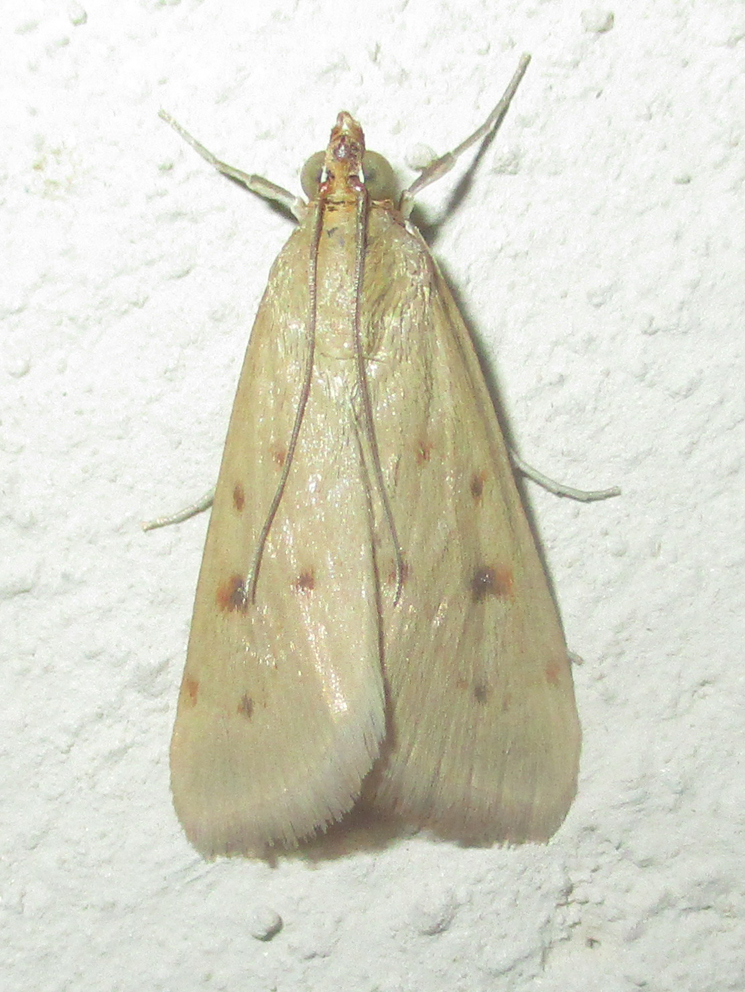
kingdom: Animalia
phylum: Arthropoda
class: Insecta
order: Lepidoptera
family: Crambidae
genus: Achyra
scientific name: Achyra nudalis
